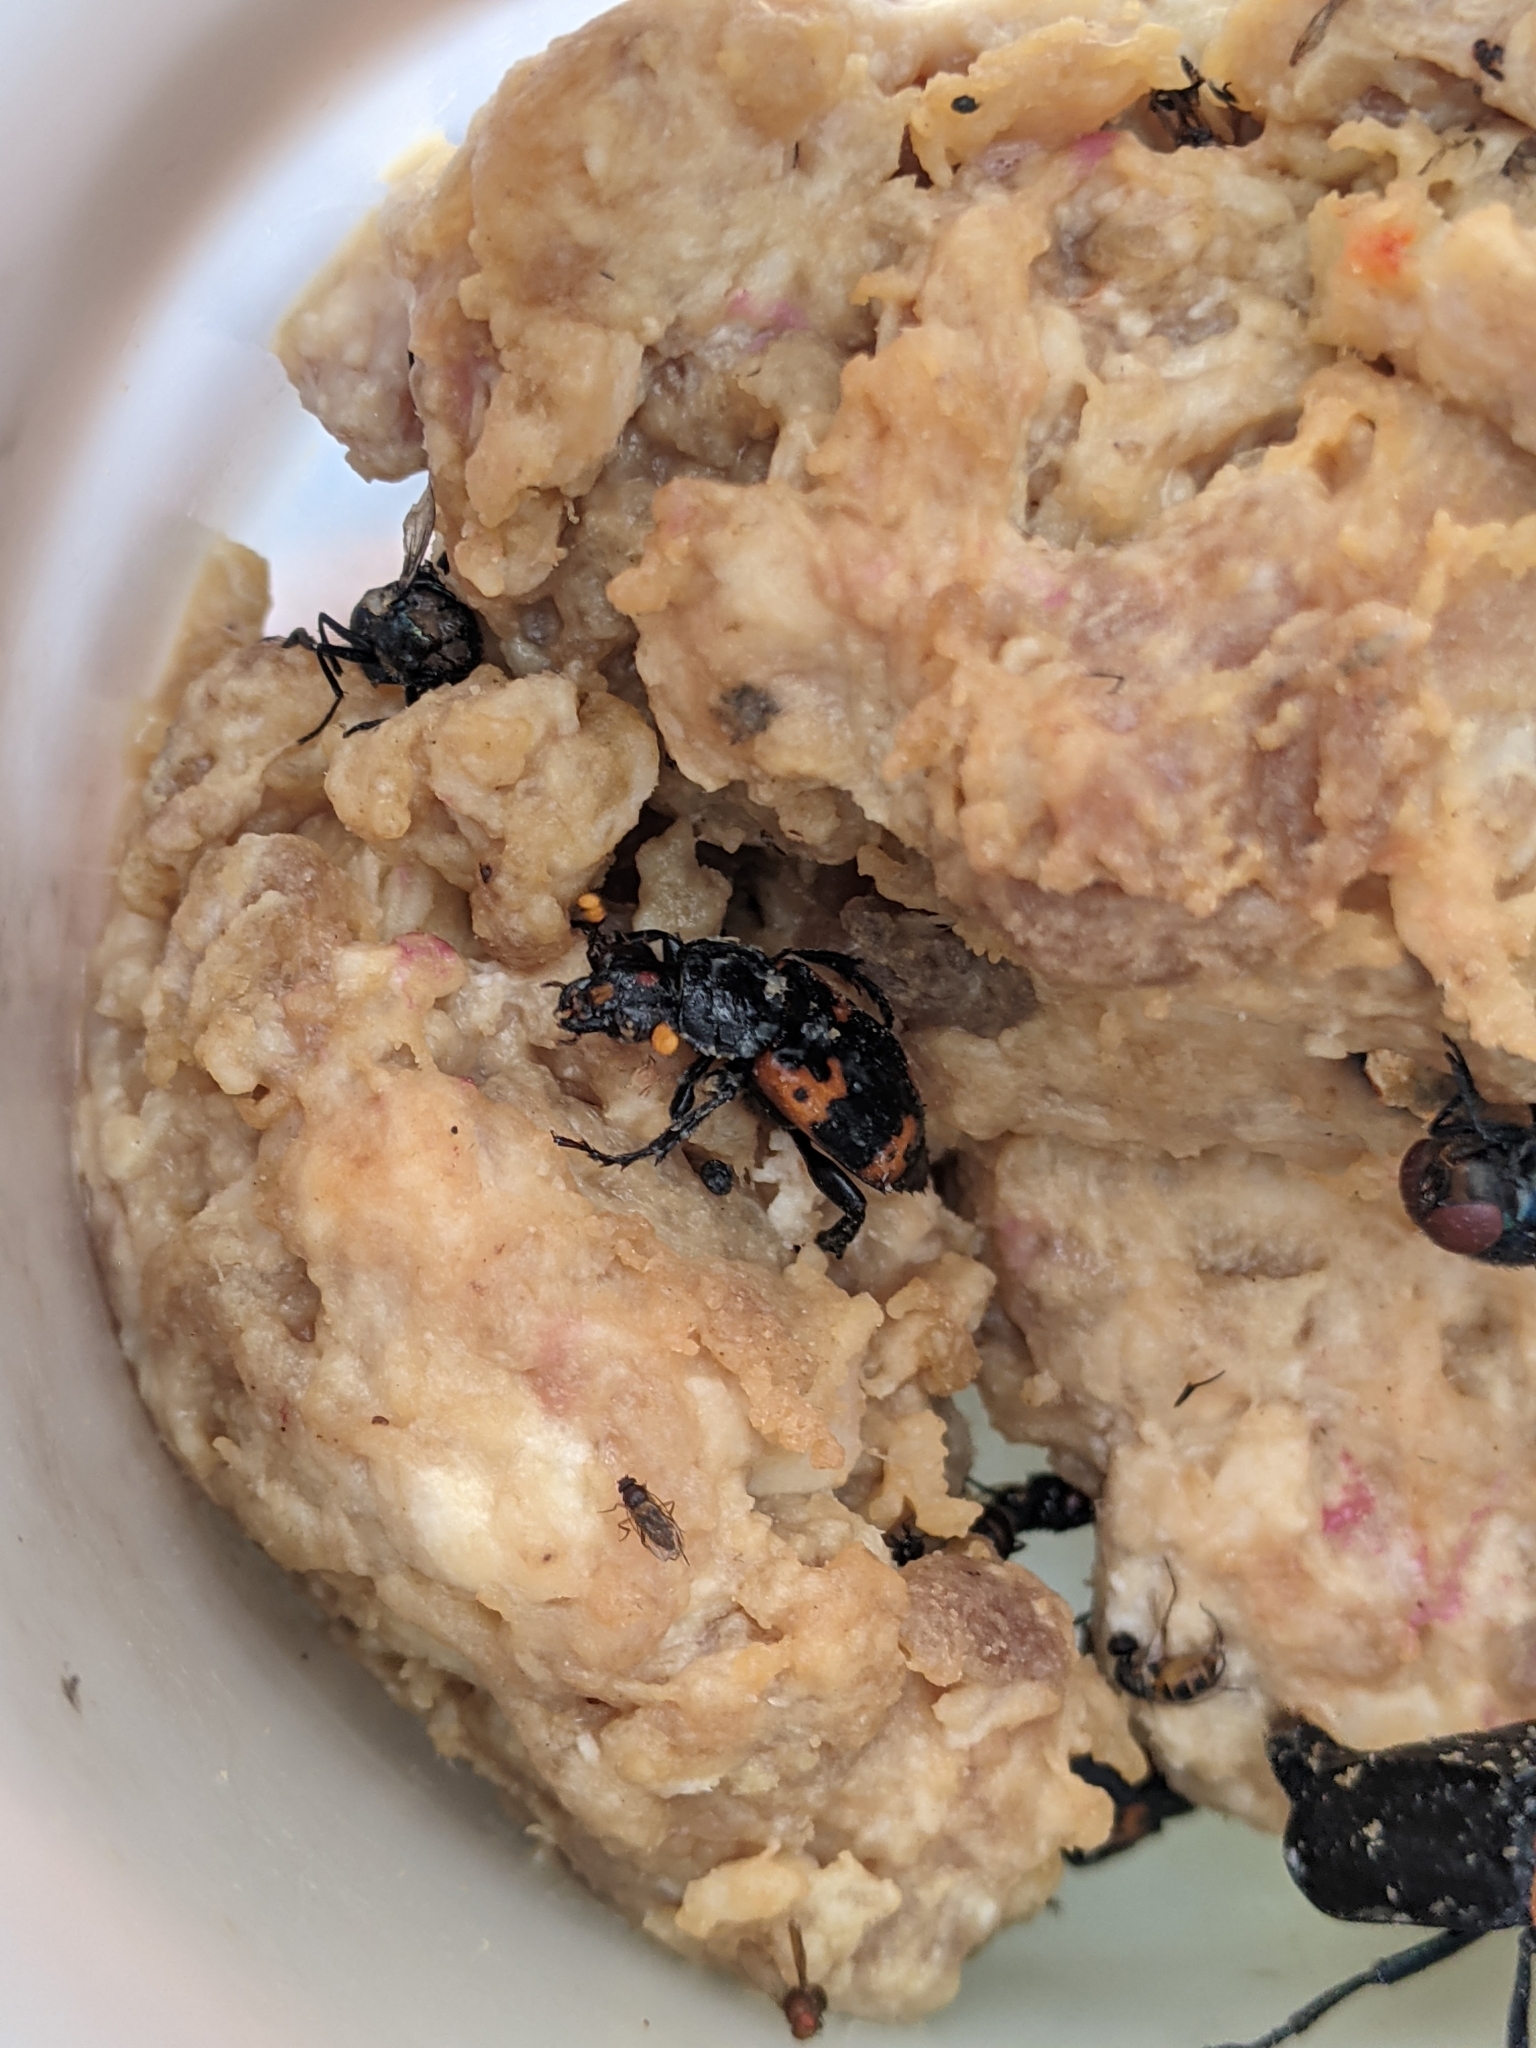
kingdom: Animalia
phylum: Arthropoda
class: Insecta
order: Coleoptera
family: Staphylinidae
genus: Nicrophorus
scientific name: Nicrophorus nepalensis
